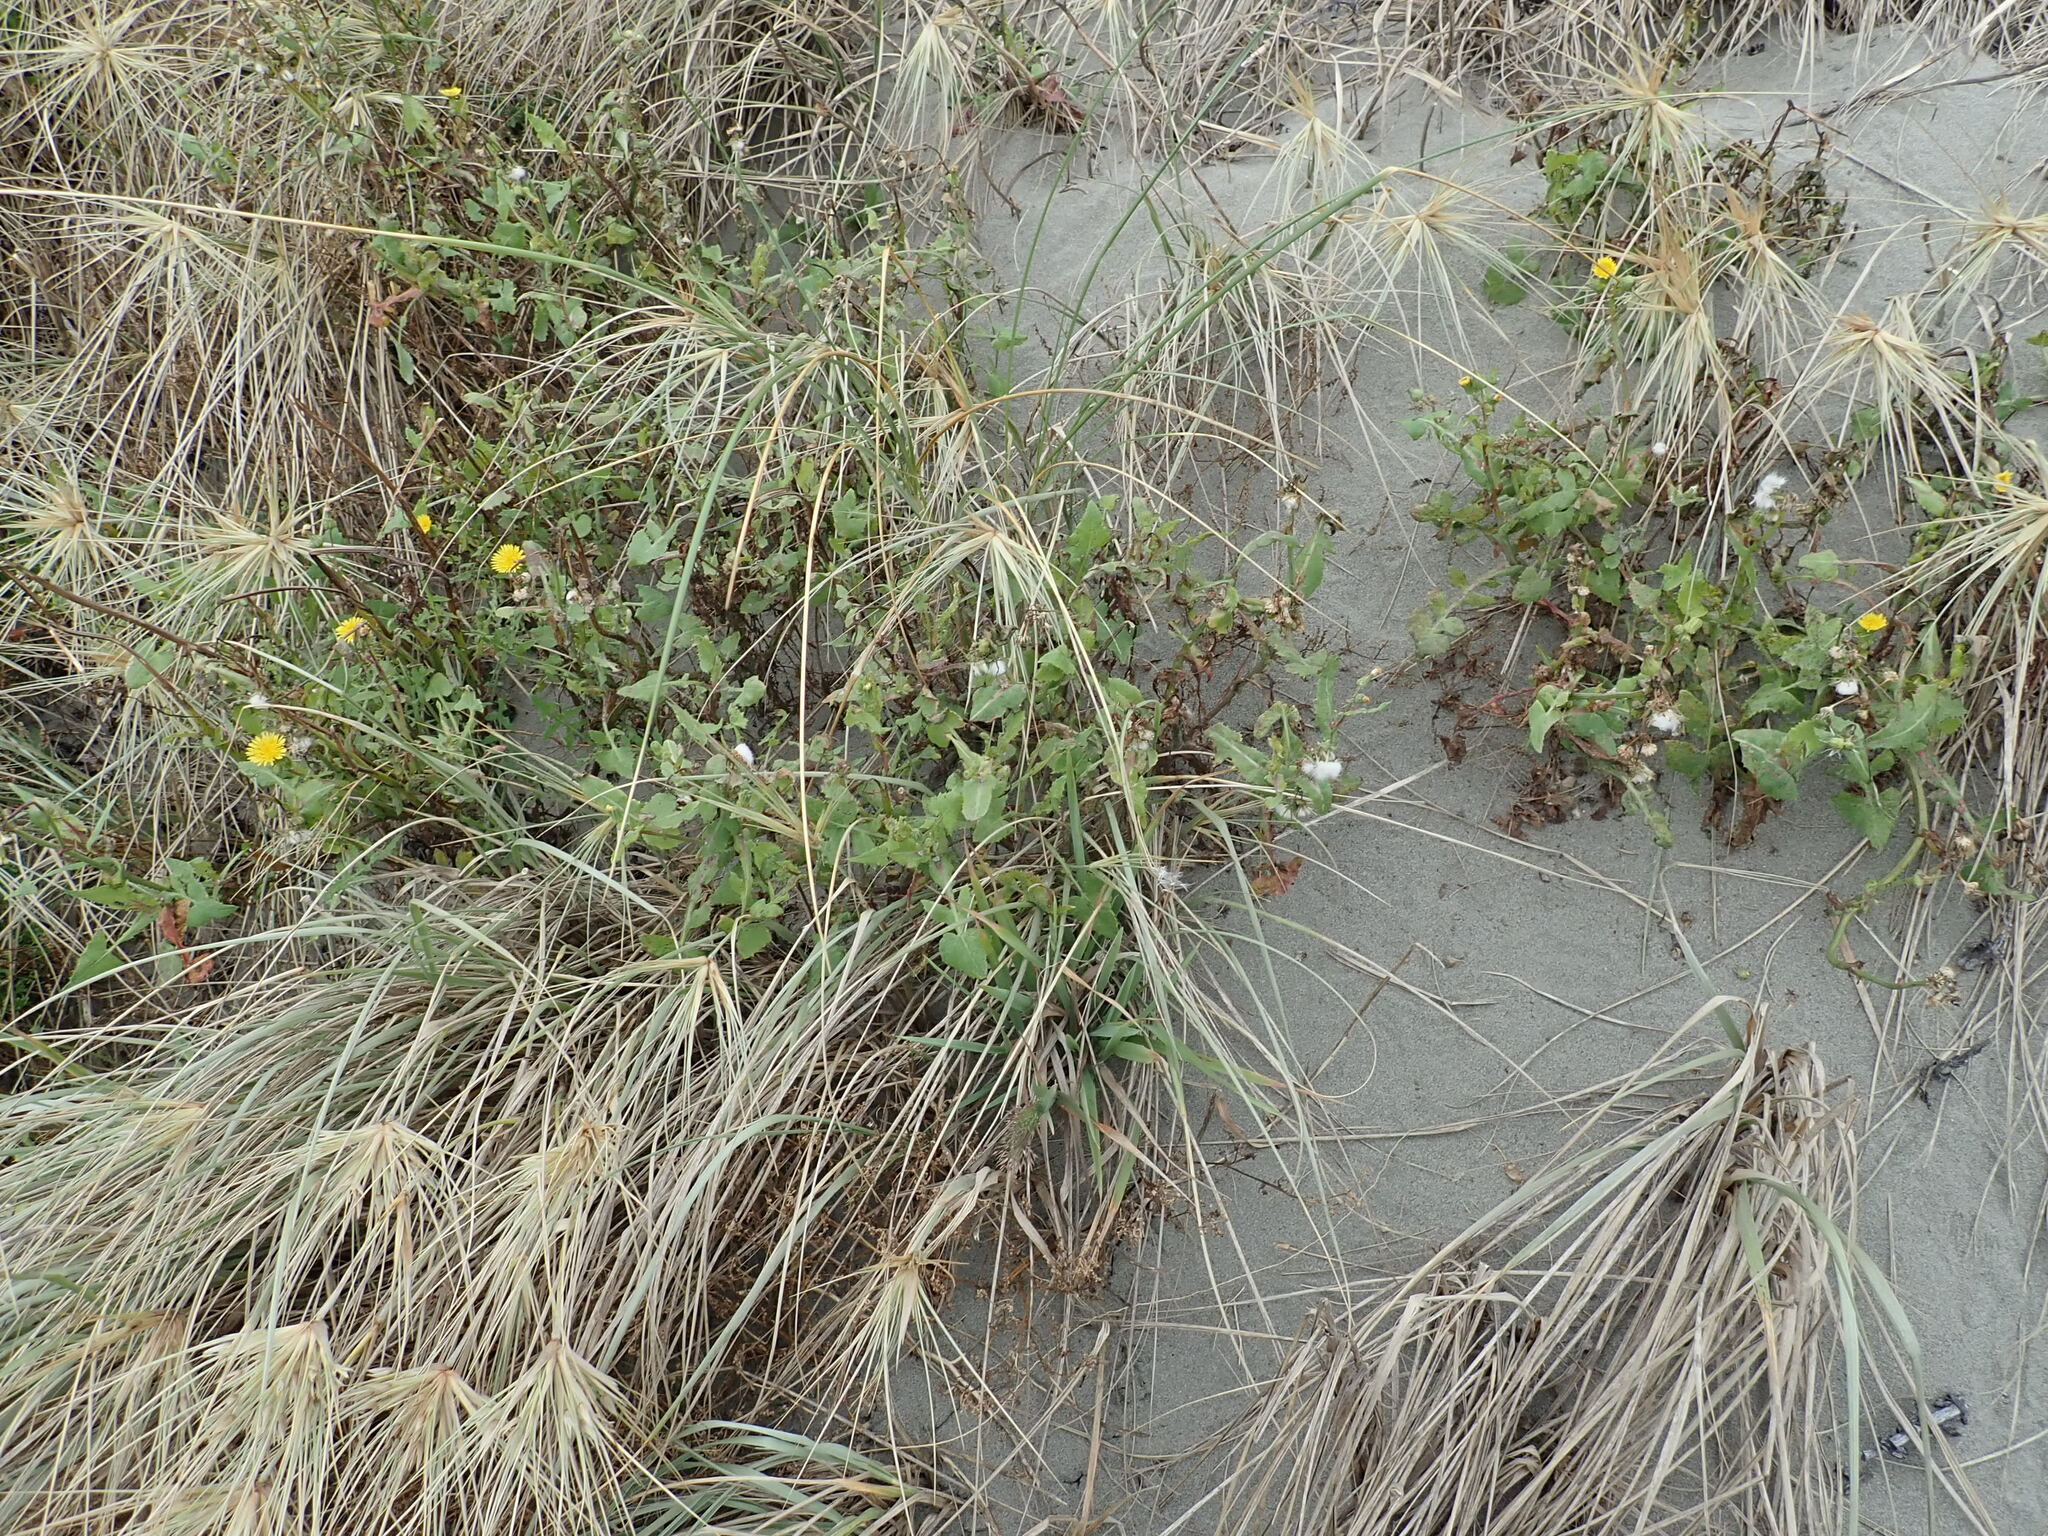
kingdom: Plantae
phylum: Tracheophyta
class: Magnoliopsida
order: Asterales
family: Asteraceae
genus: Sonchus
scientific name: Sonchus oleraceus
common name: Common sowthistle
